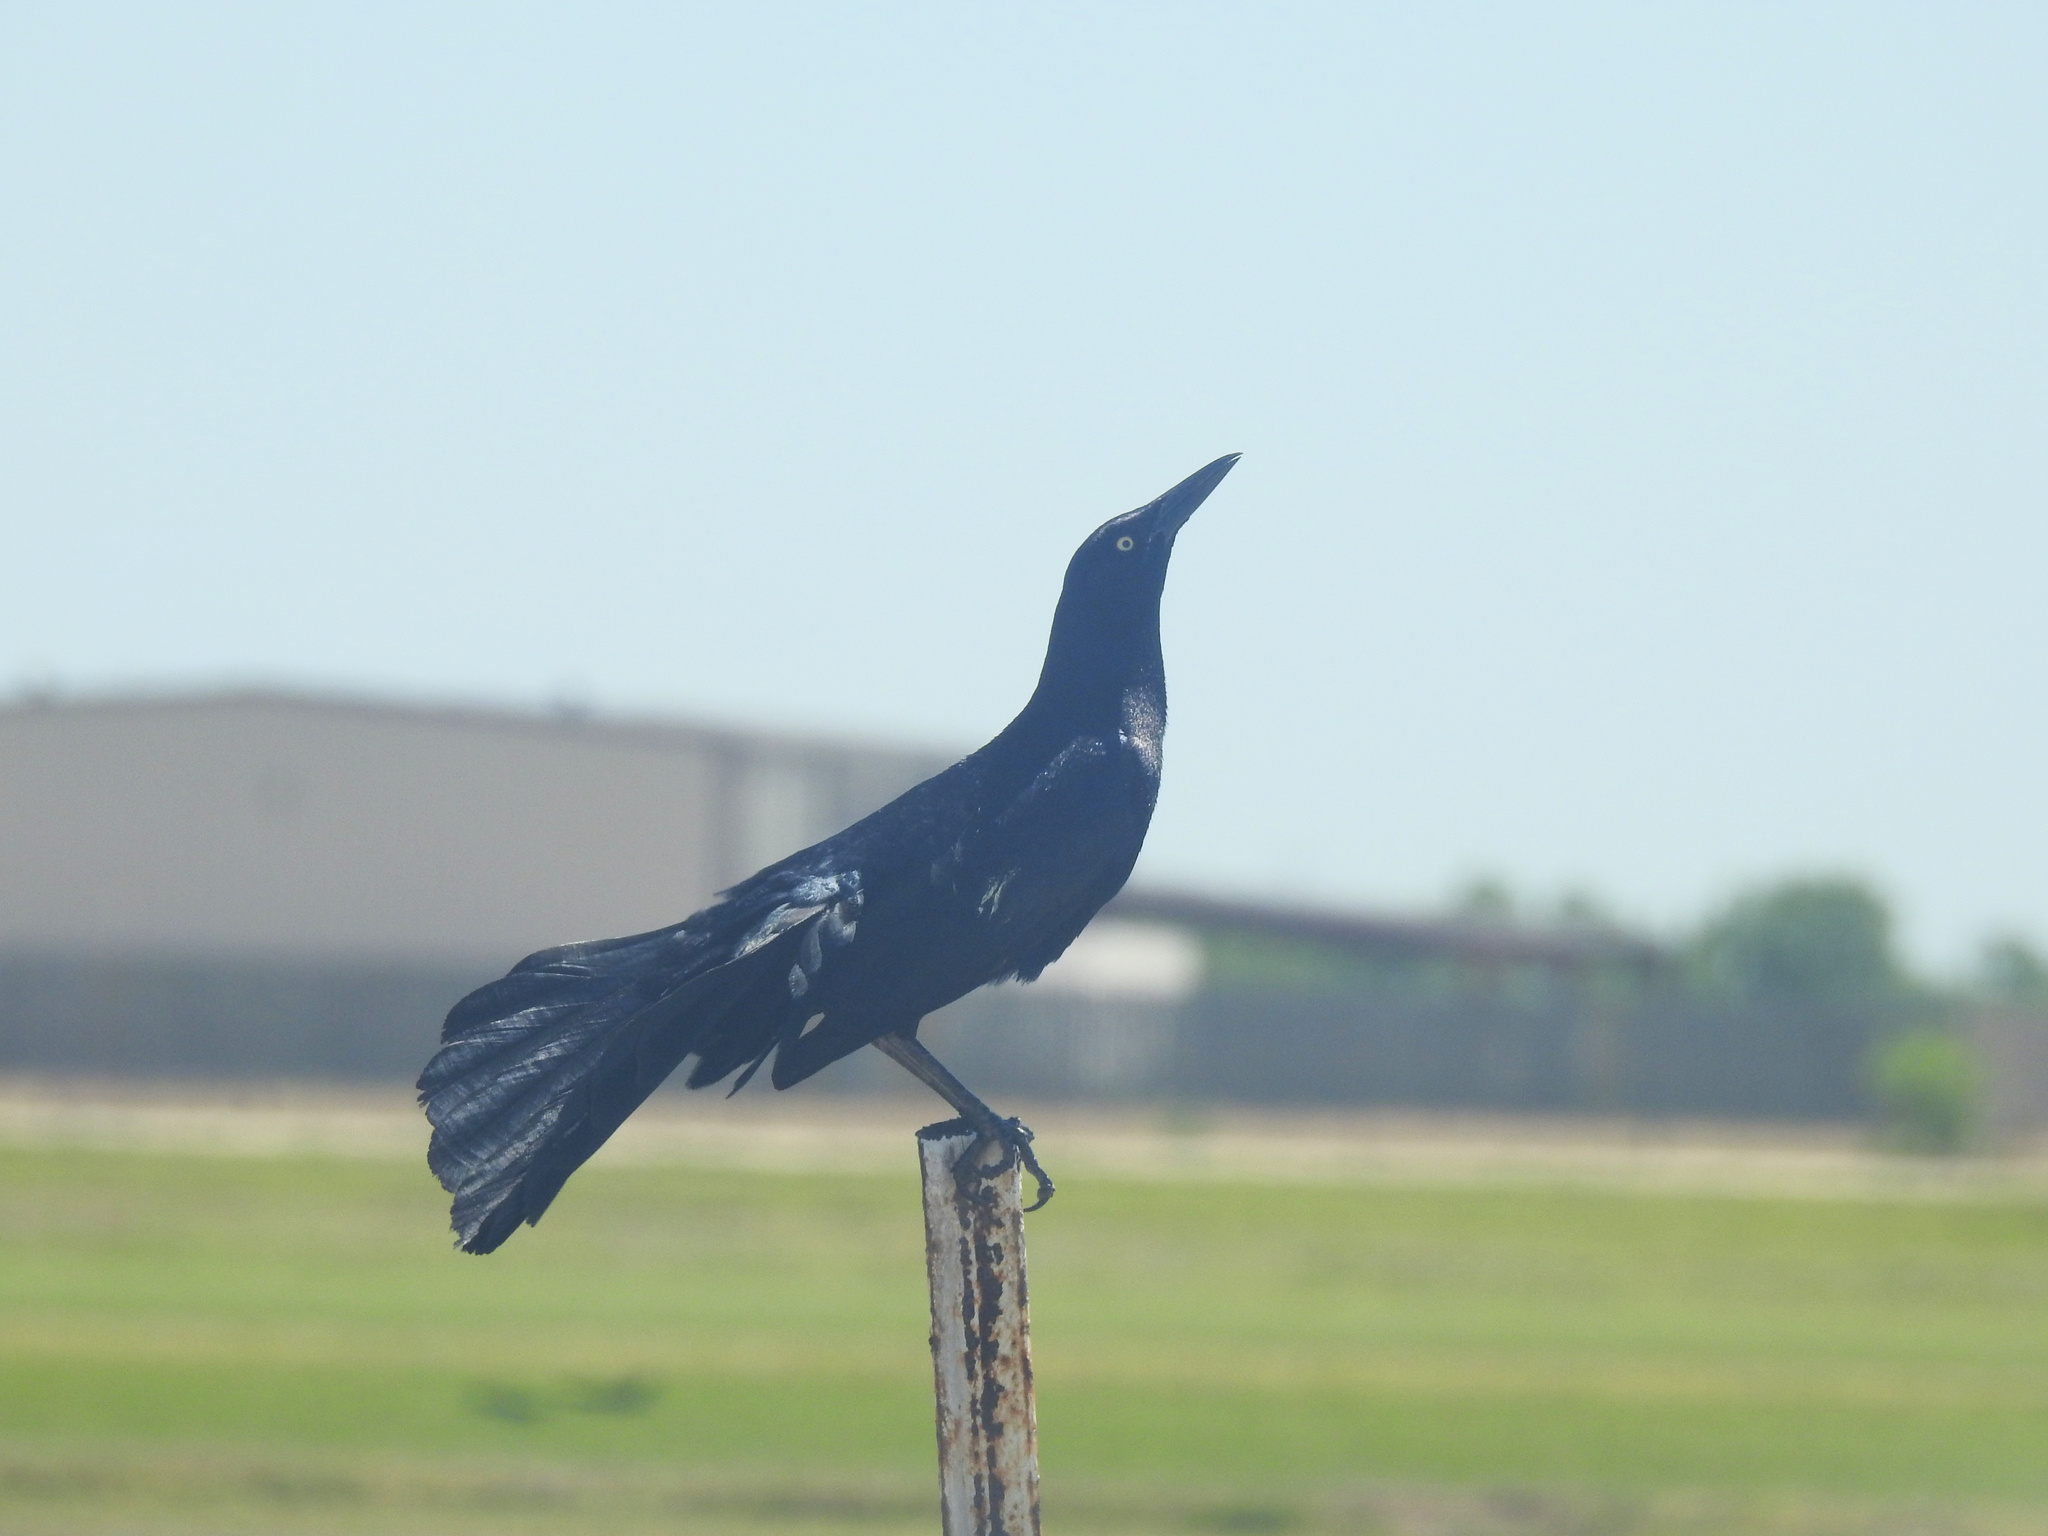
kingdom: Animalia
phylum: Chordata
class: Aves
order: Passeriformes
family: Icteridae
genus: Quiscalus
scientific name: Quiscalus mexicanus
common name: Great-tailed grackle
